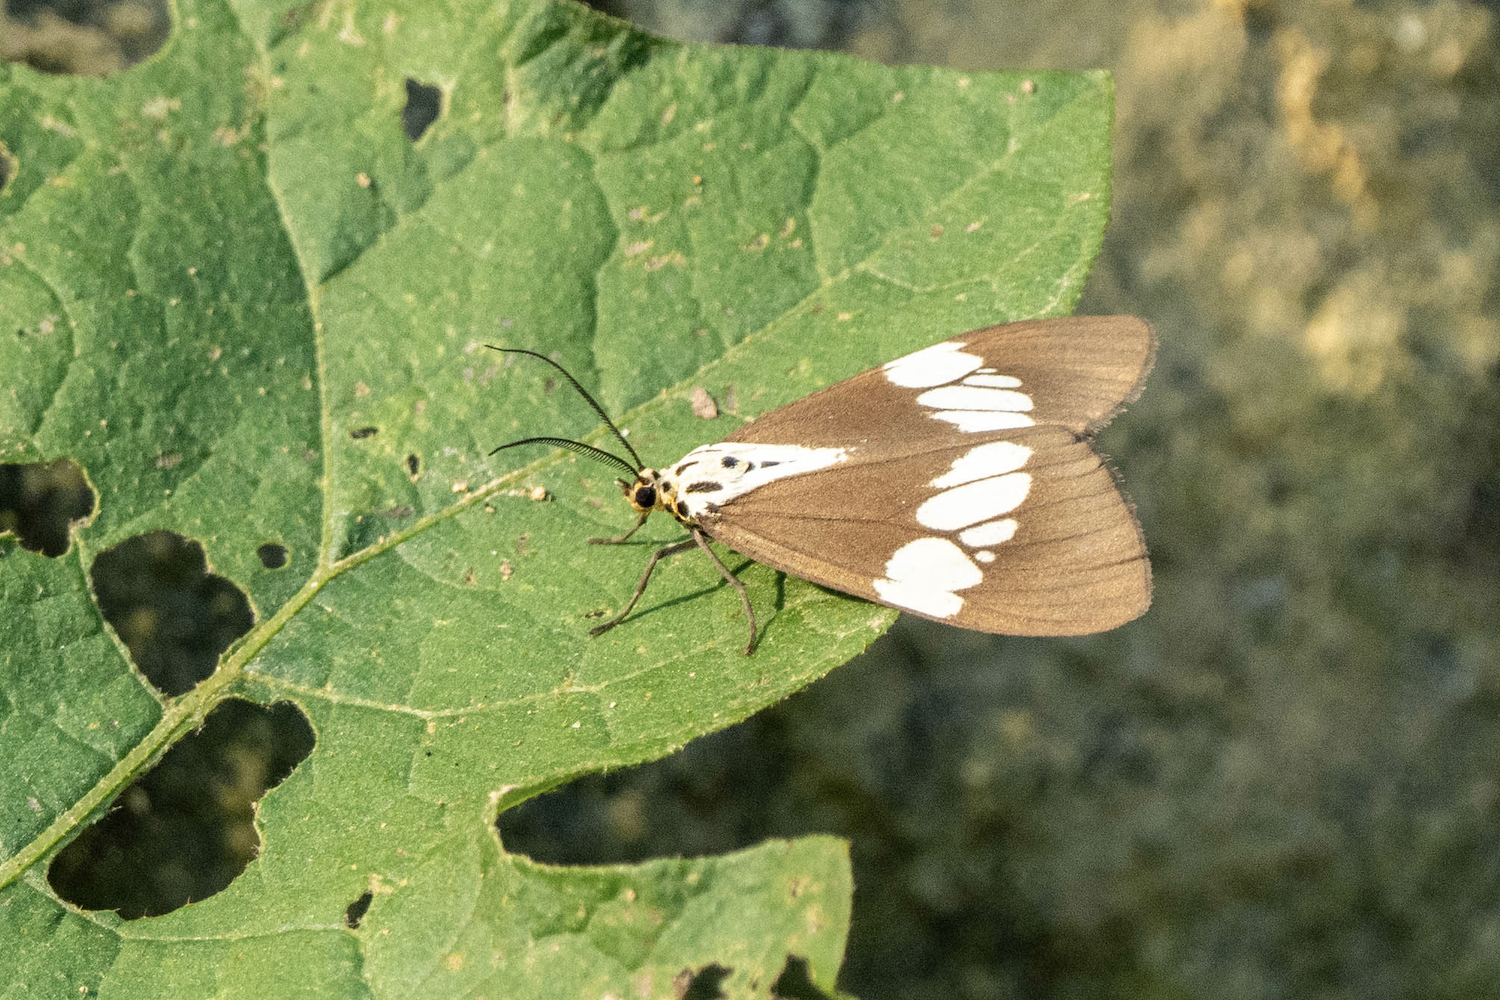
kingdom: Animalia
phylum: Arthropoda
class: Insecta
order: Lepidoptera
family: Erebidae
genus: Nyctemera
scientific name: Nyctemera lacticinia
